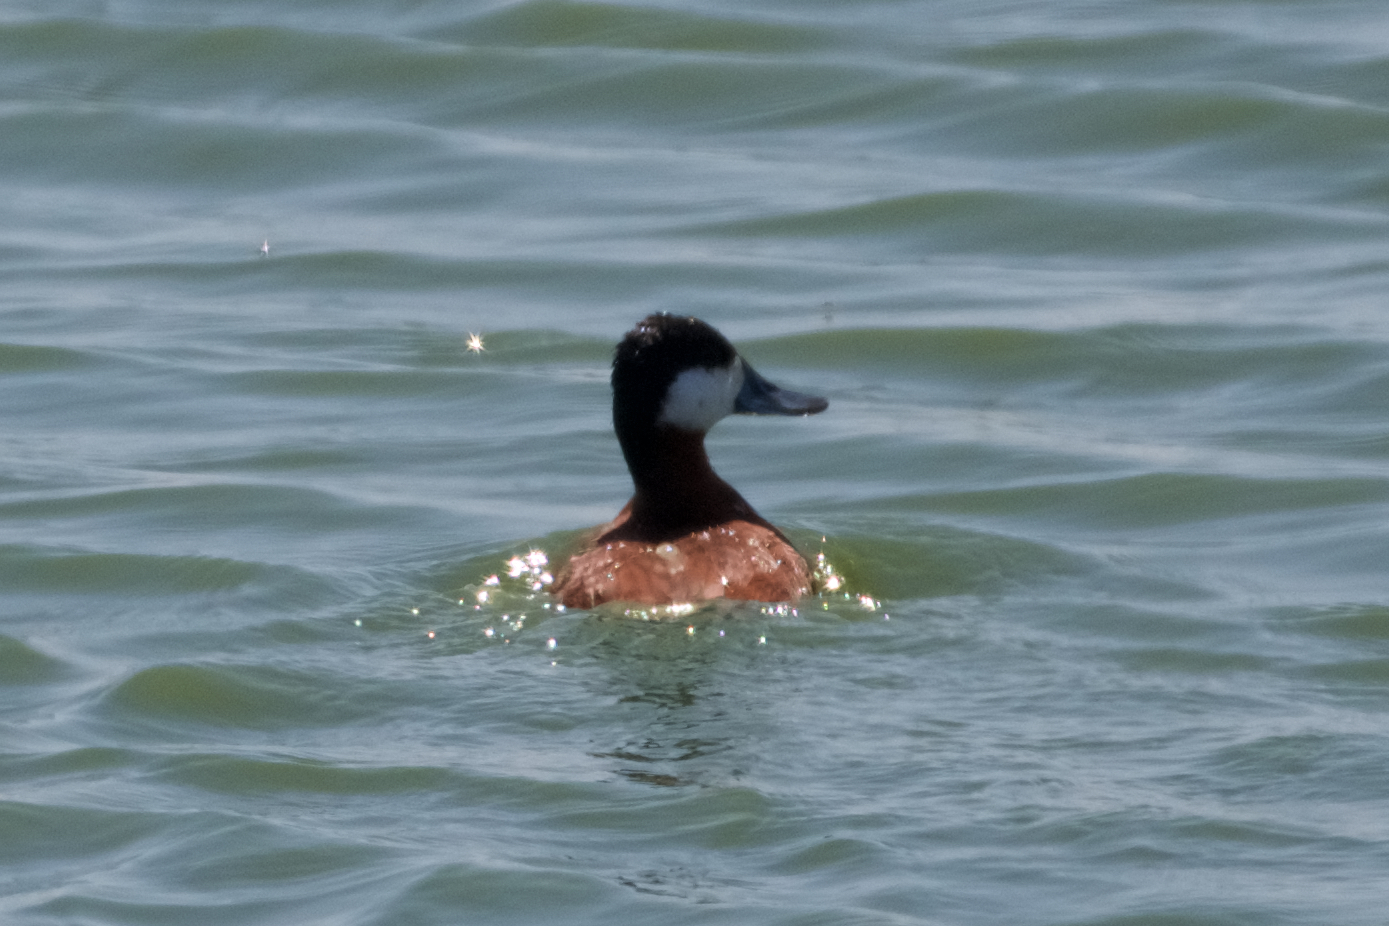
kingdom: Animalia
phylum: Chordata
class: Aves
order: Anseriformes
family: Anatidae
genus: Oxyura
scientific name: Oxyura jamaicensis
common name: Ruddy duck
